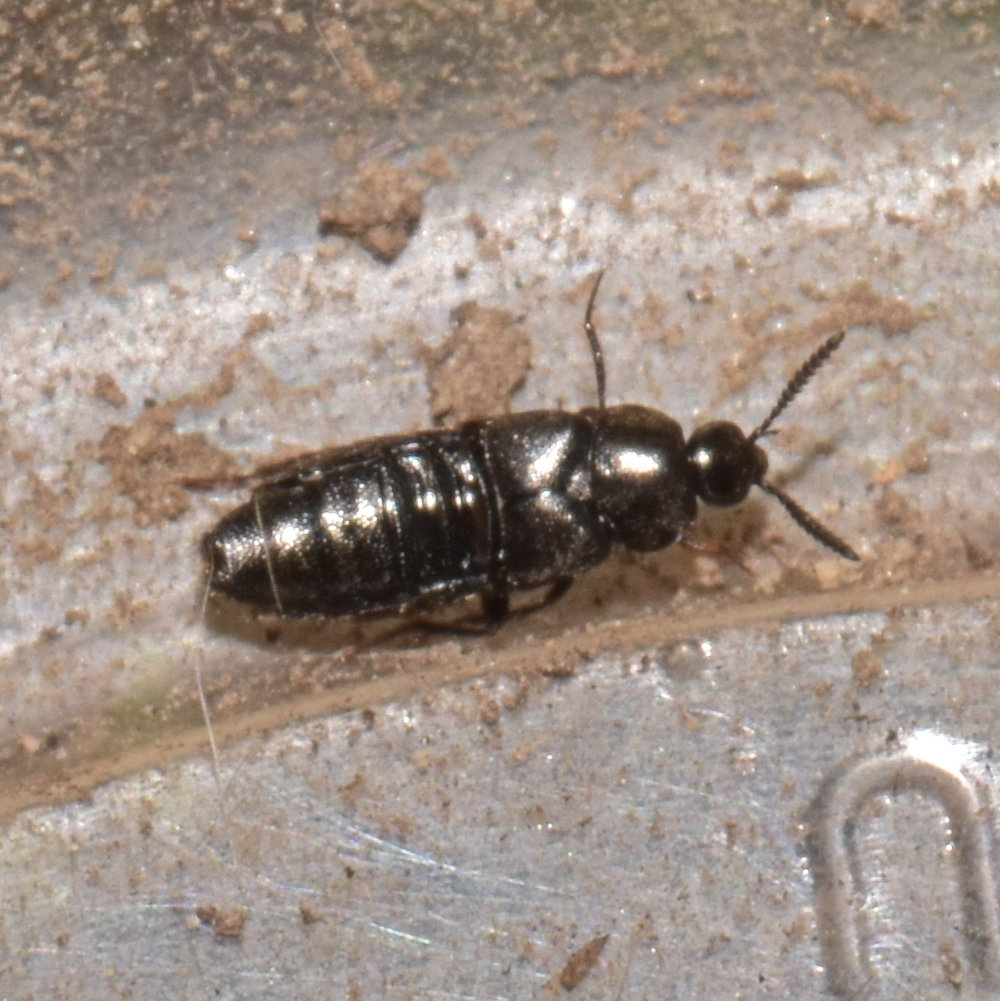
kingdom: Animalia
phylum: Arthropoda
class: Insecta
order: Coleoptera
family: Staphylinidae
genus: Aleochara
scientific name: Aleochara lata
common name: Rove beetle
